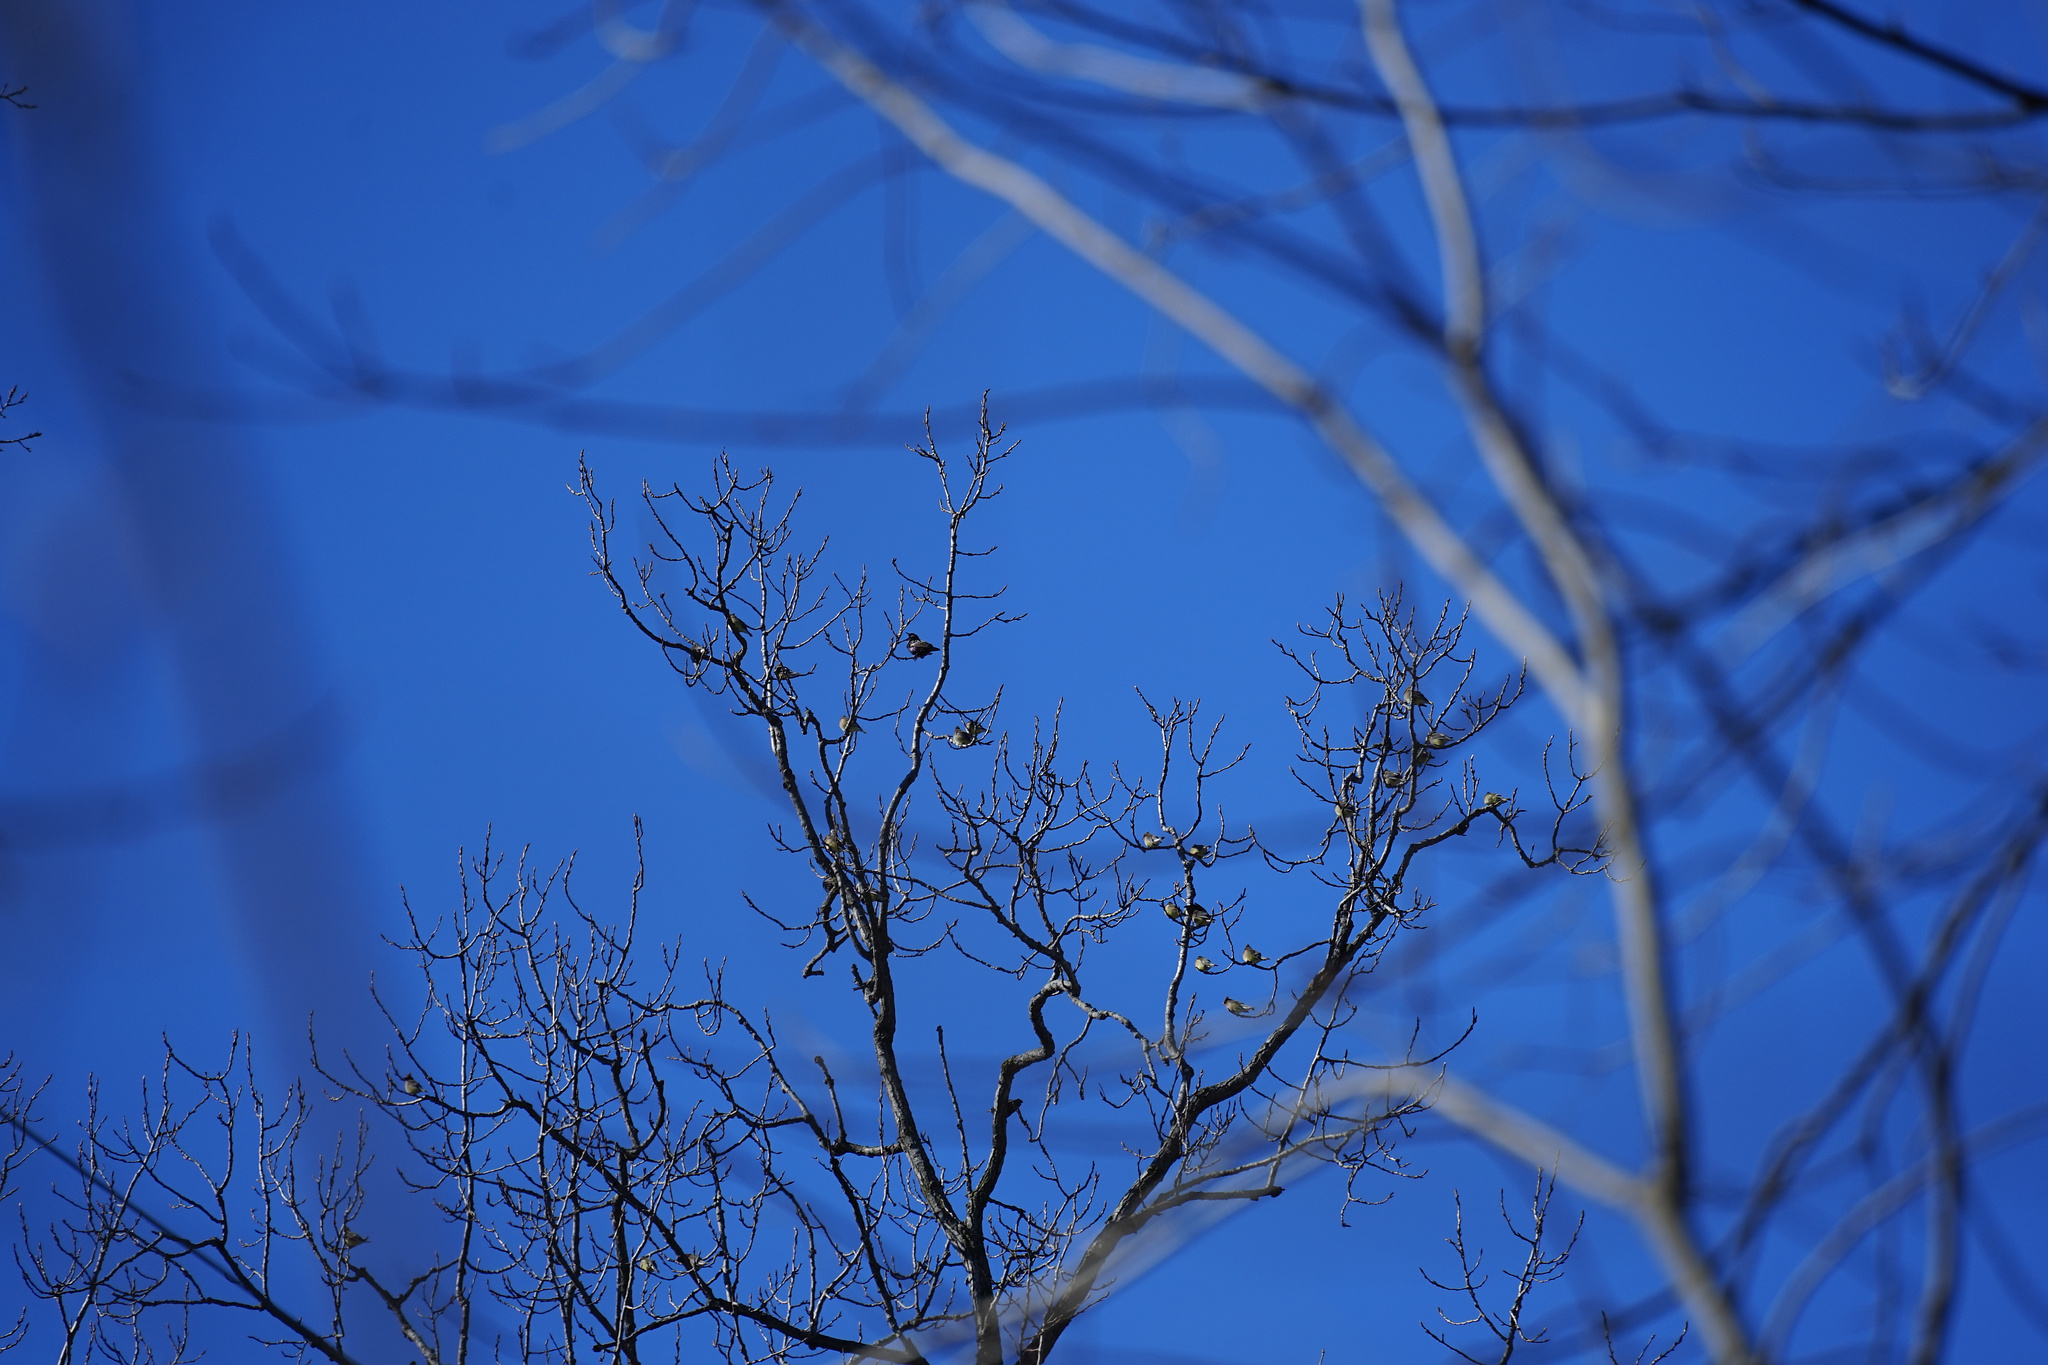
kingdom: Animalia
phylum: Chordata
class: Aves
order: Passeriformes
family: Bombycillidae
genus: Bombycilla
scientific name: Bombycilla cedrorum
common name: Cedar waxwing
